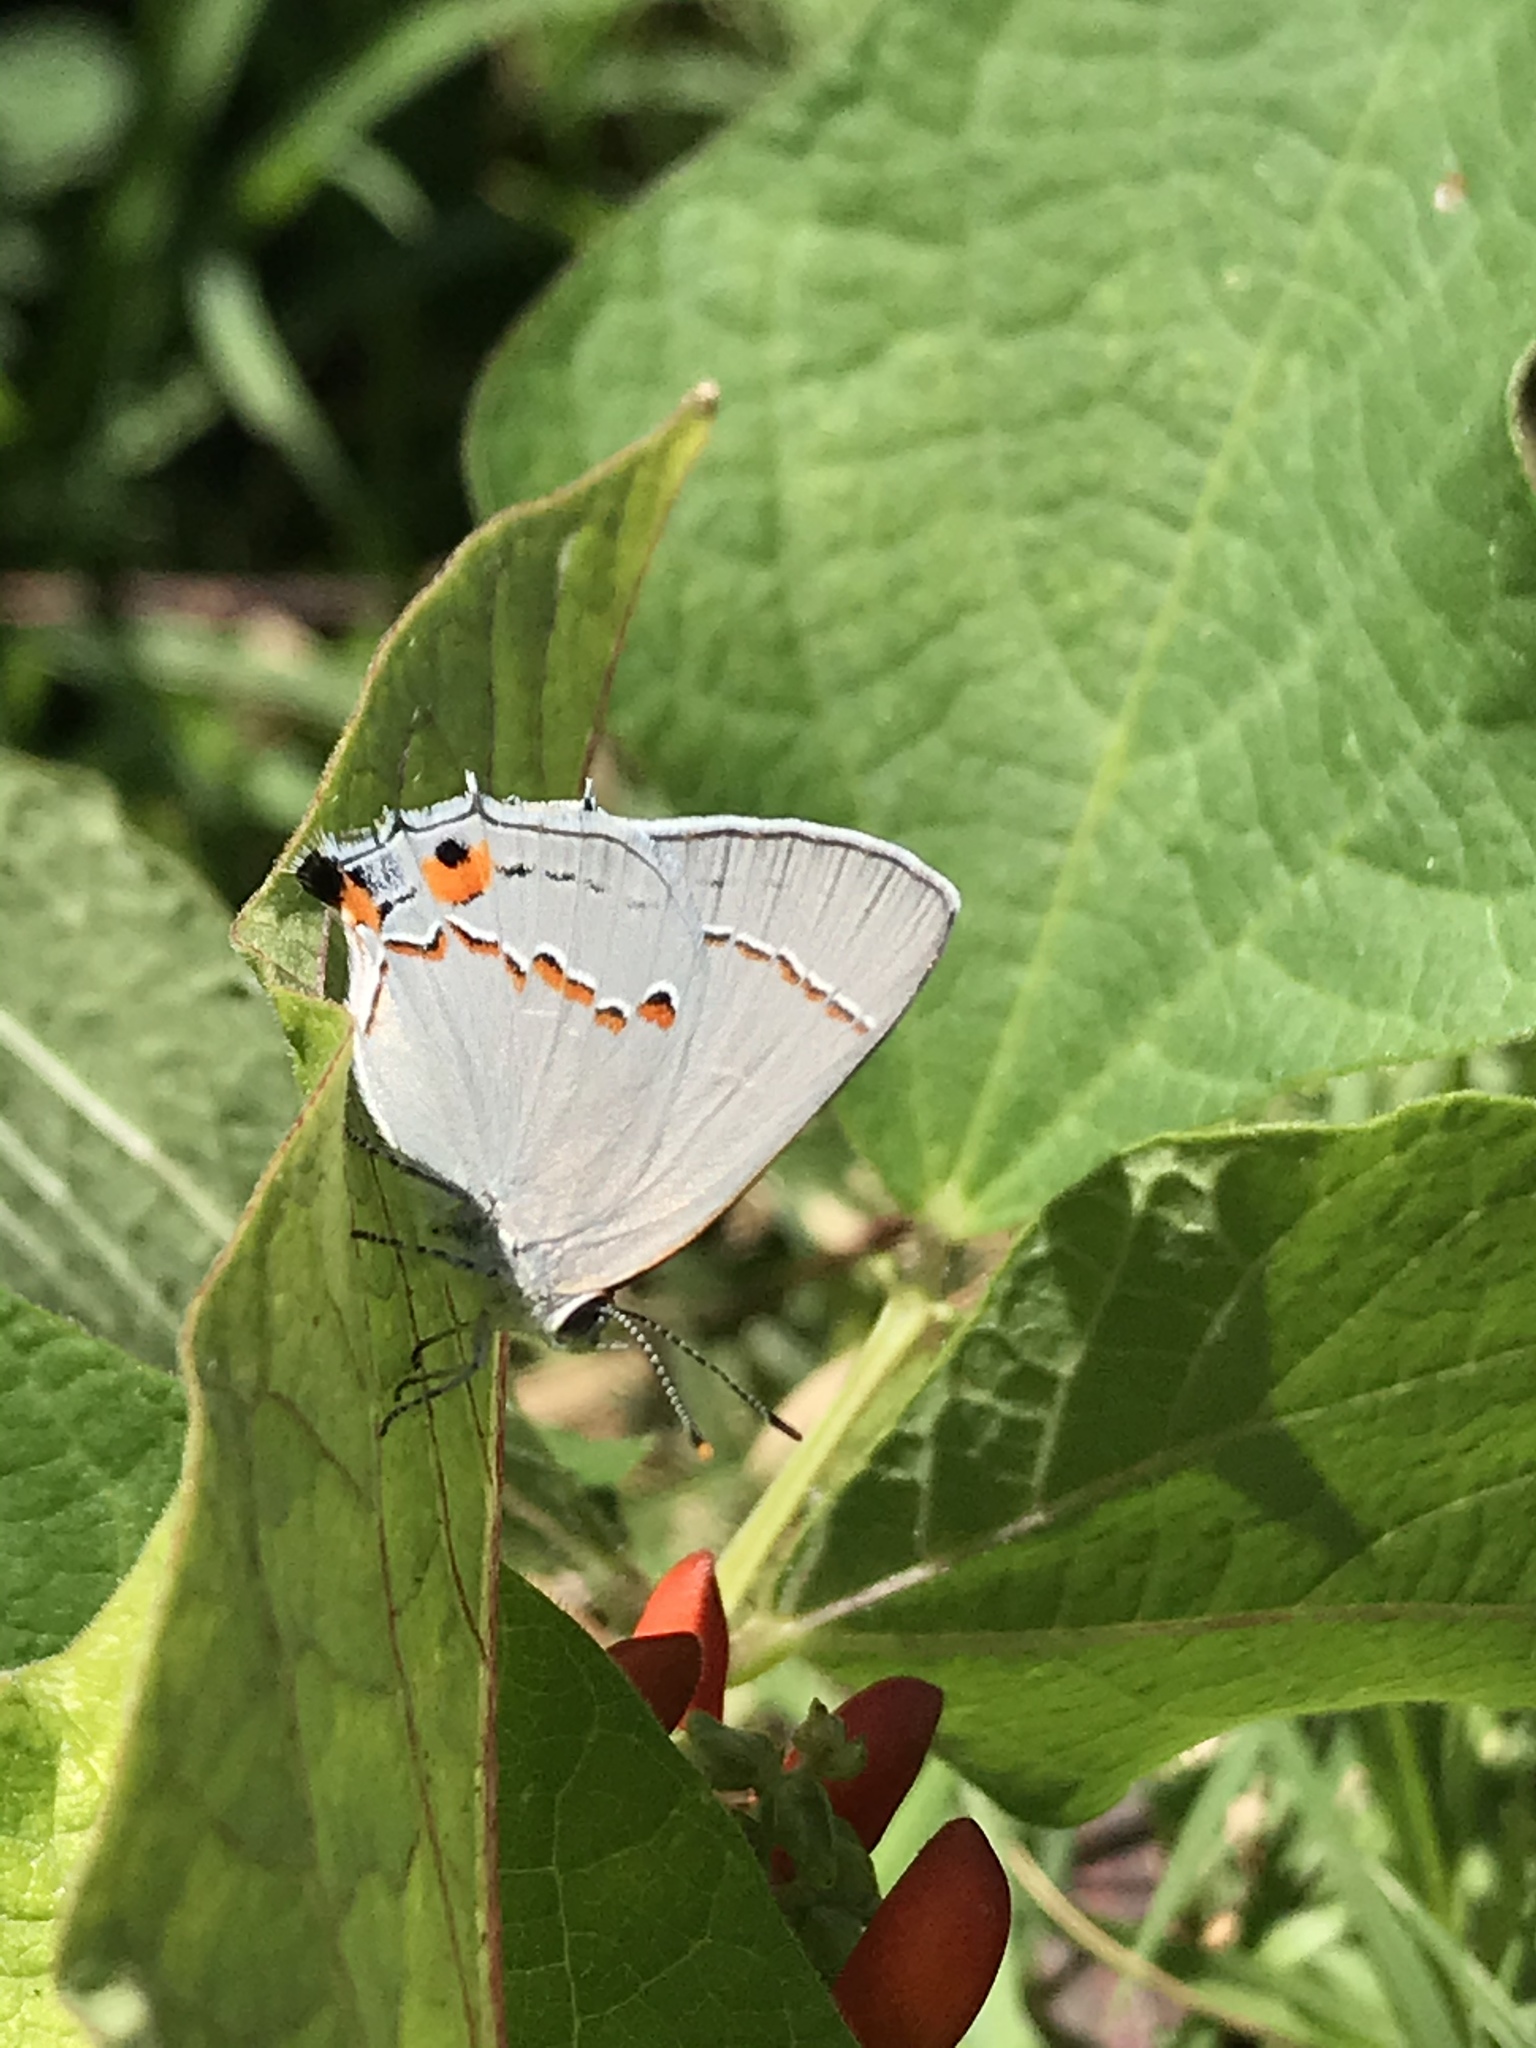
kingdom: Animalia
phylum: Arthropoda
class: Insecta
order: Lepidoptera
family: Lycaenidae
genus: Strymon
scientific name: Strymon melinus
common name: Gray hairstreak
